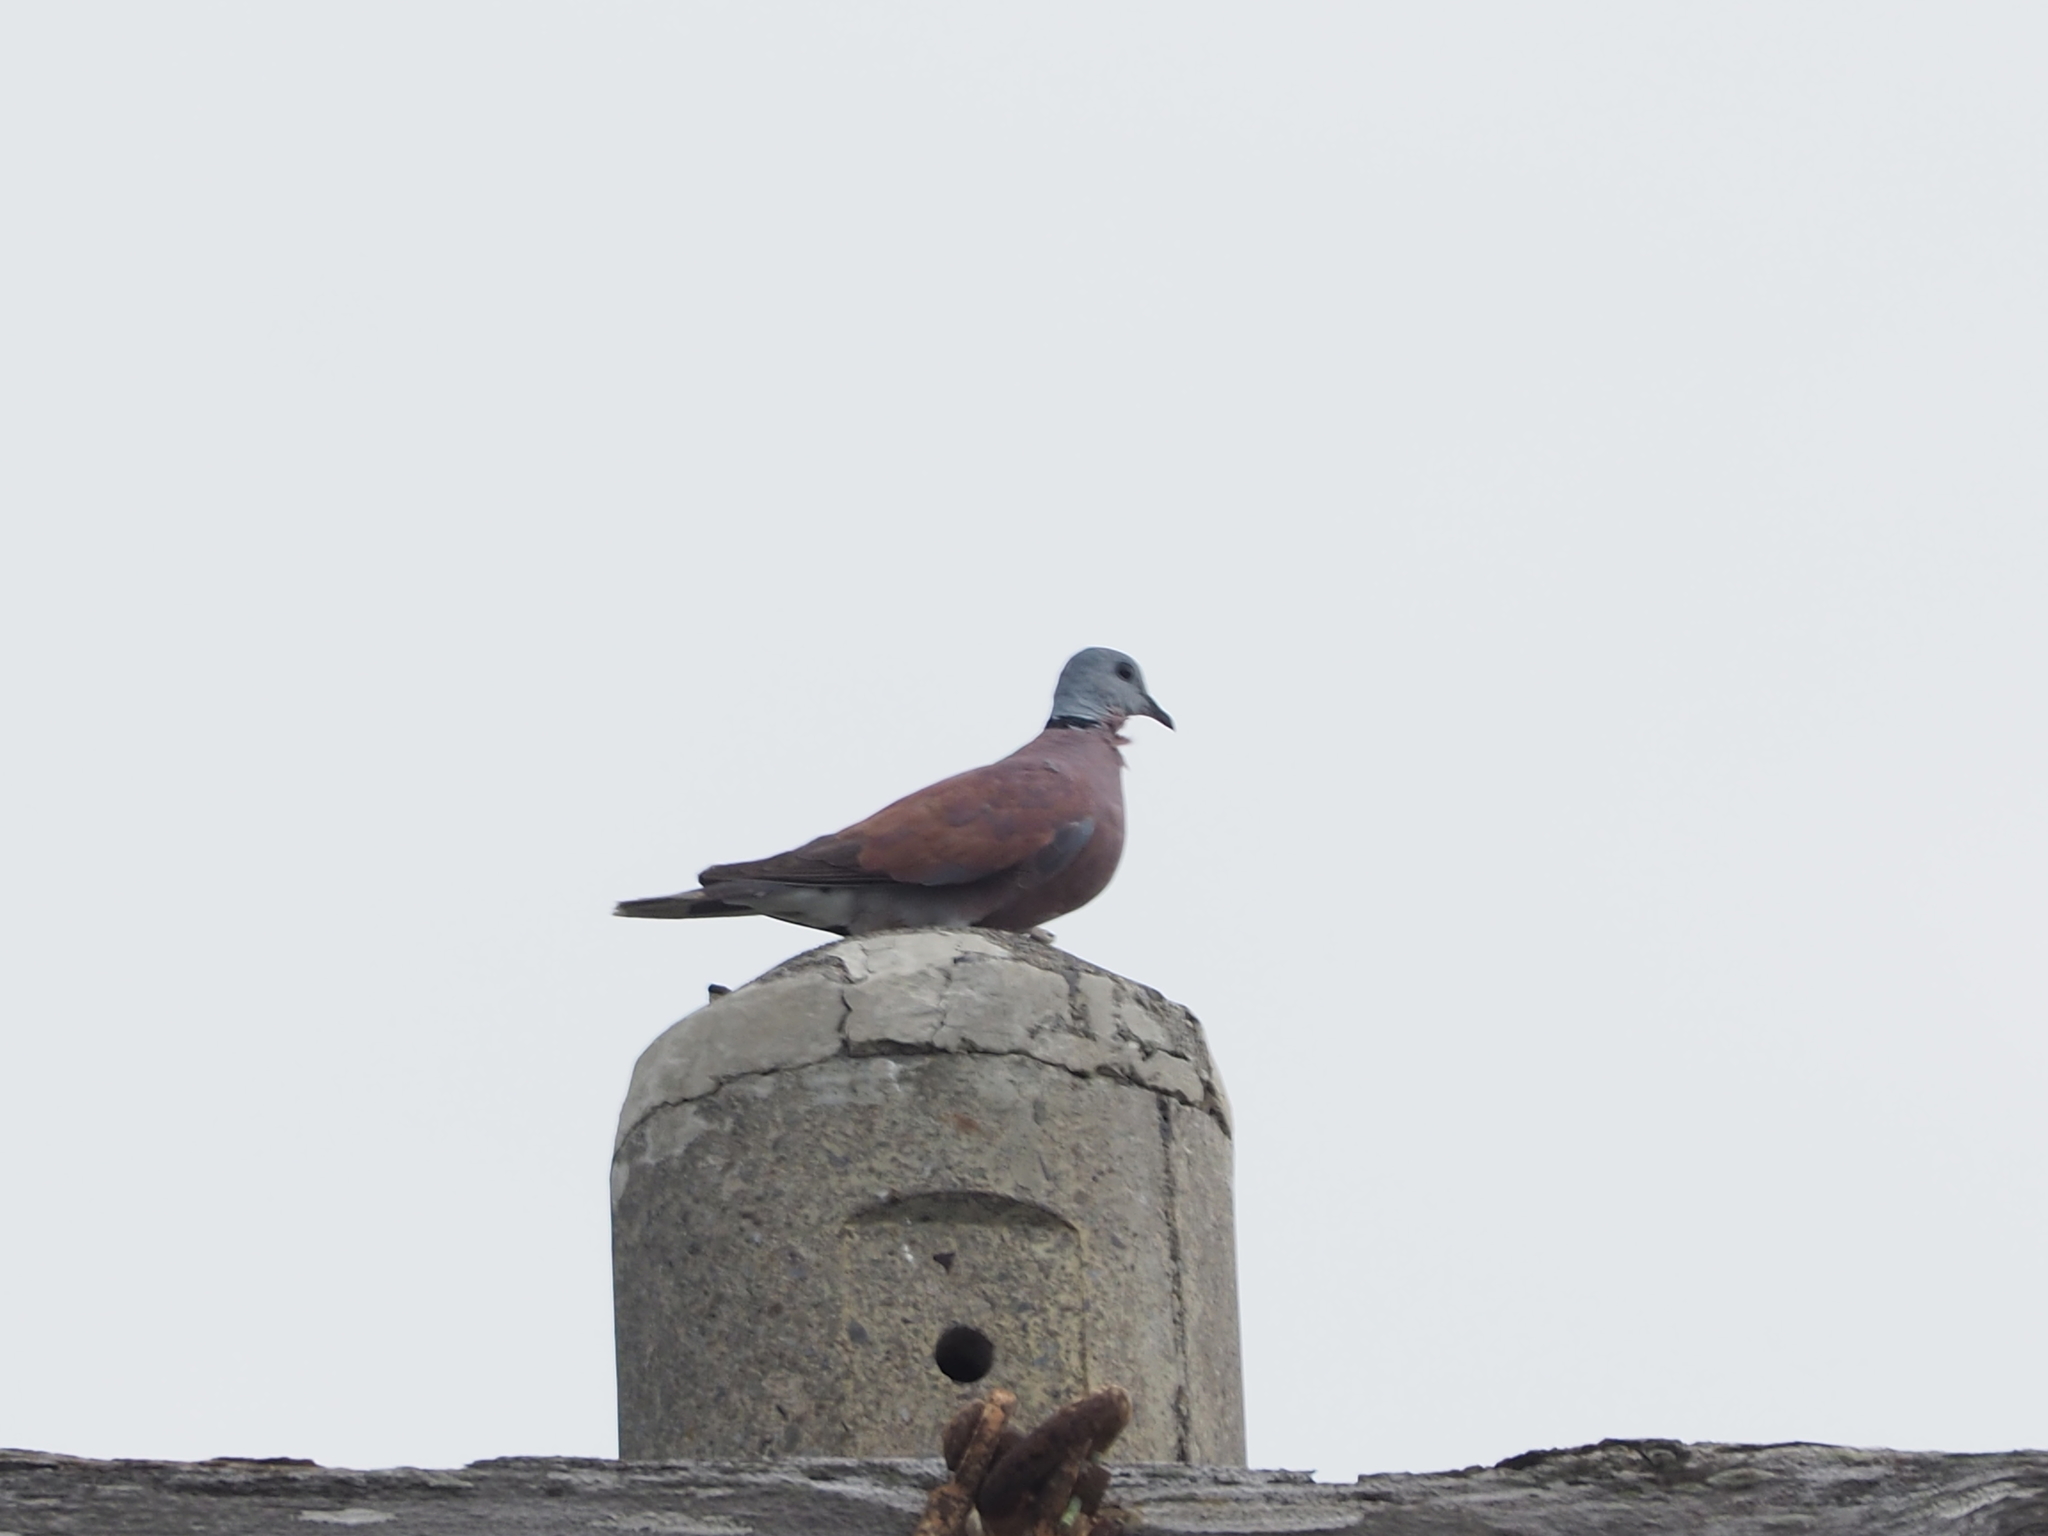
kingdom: Animalia
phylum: Chordata
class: Aves
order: Columbiformes
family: Columbidae
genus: Streptopelia
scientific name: Streptopelia tranquebarica
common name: Red turtle dove
